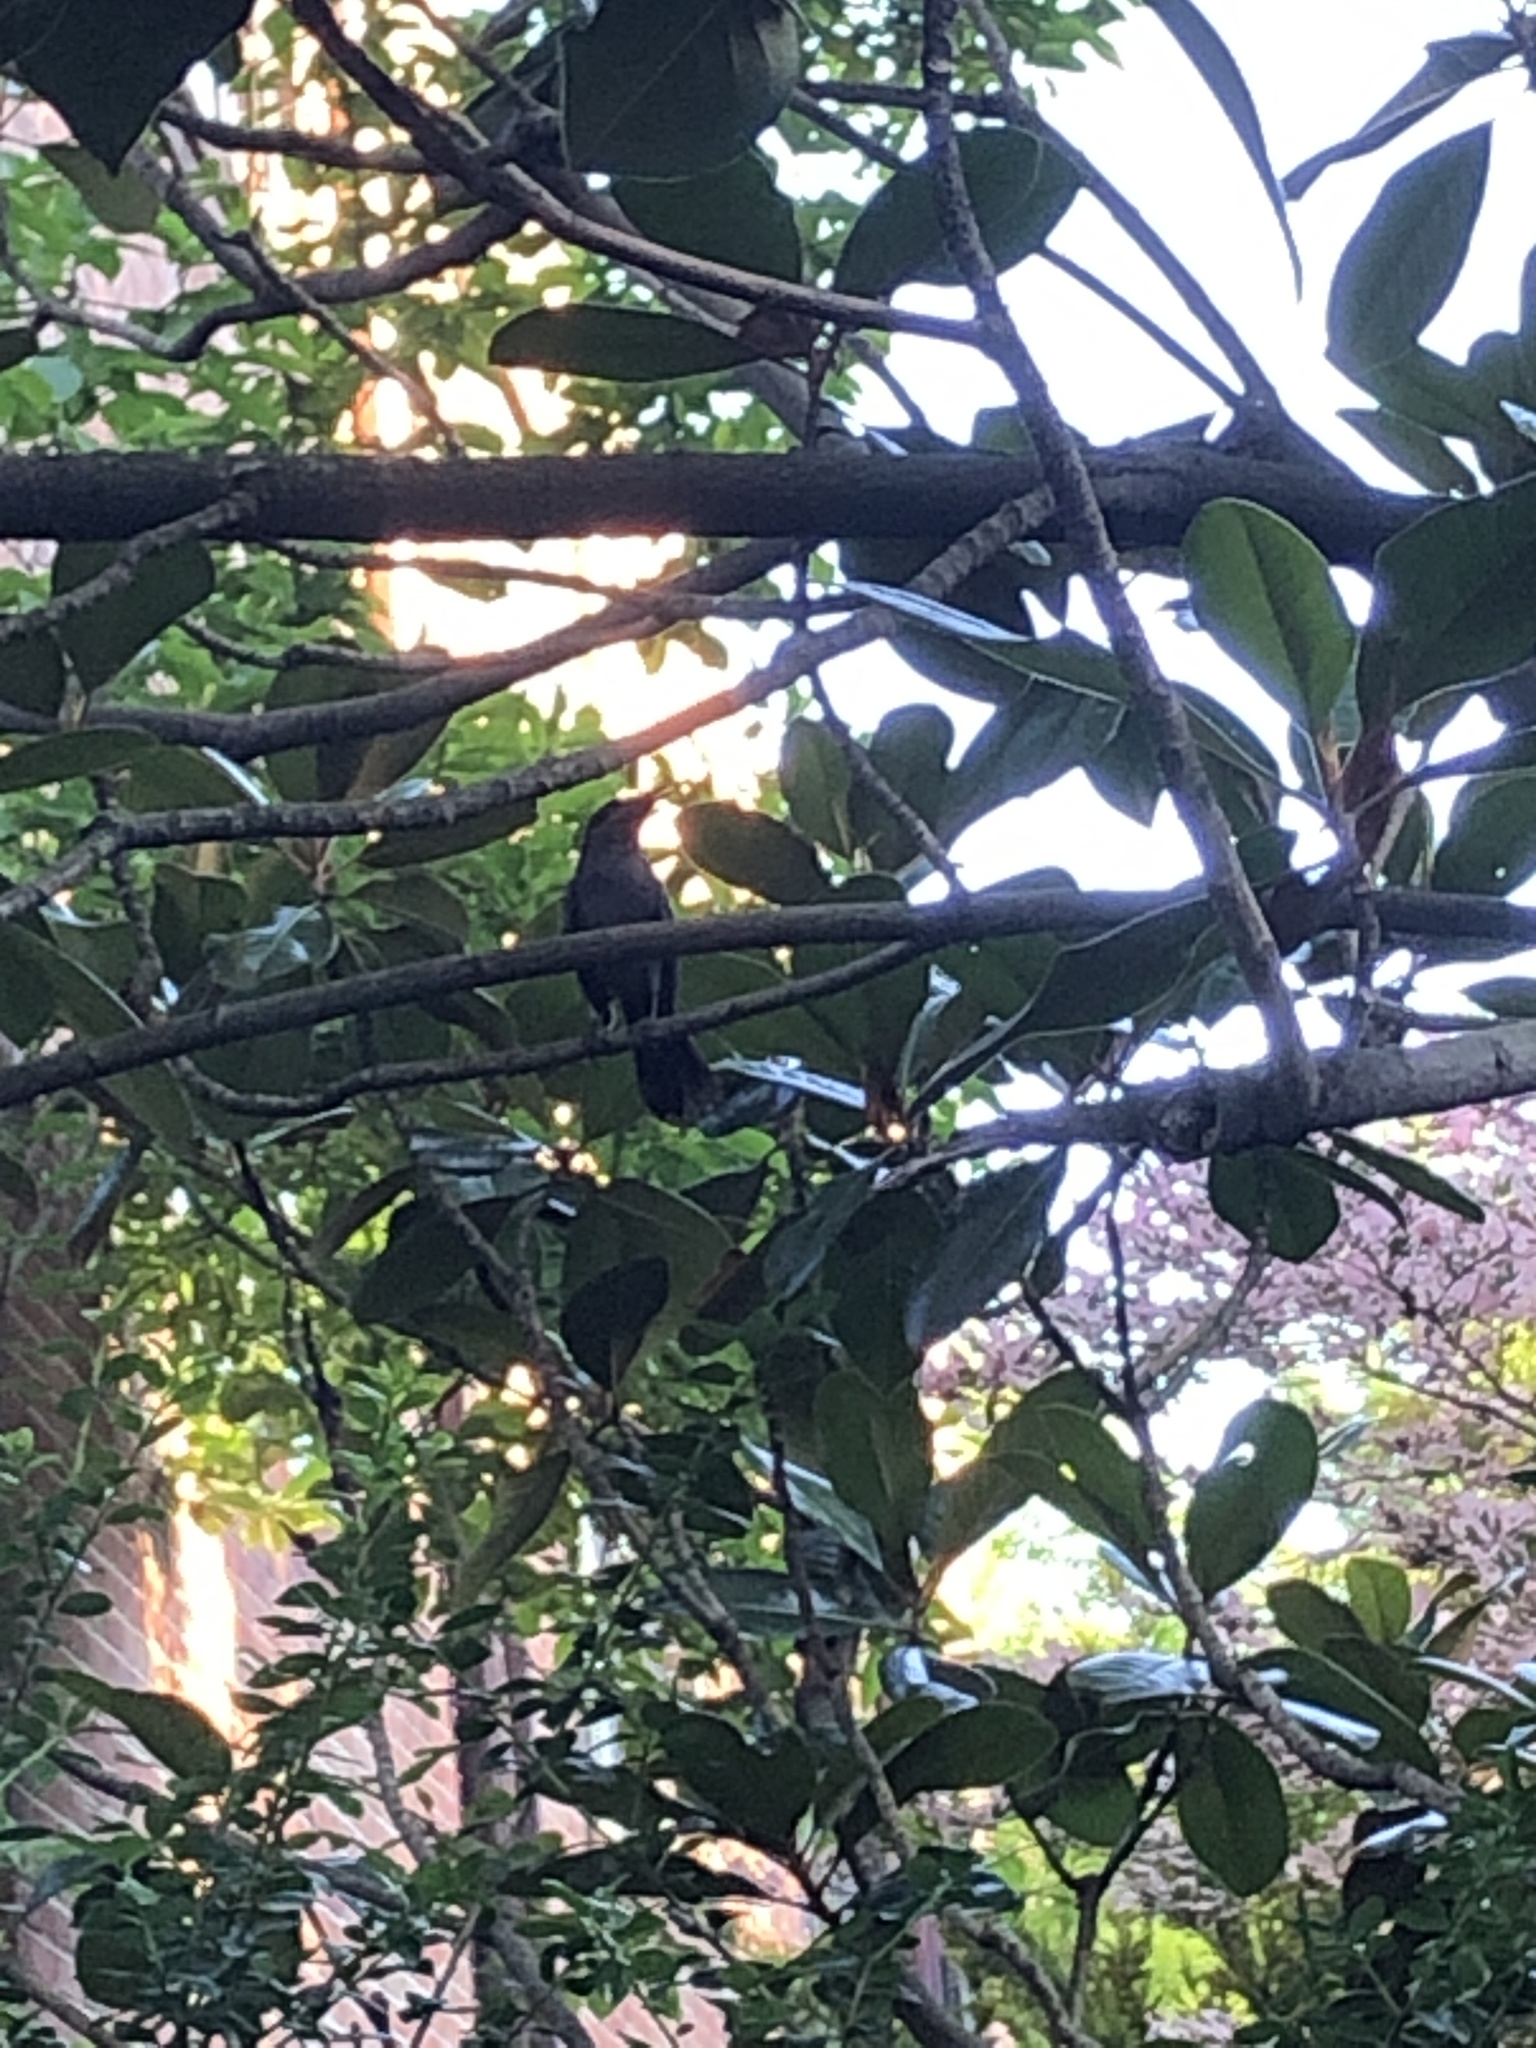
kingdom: Animalia
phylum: Chordata
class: Aves
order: Passeriformes
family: Mimidae
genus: Dumetella
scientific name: Dumetella carolinensis
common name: Gray catbird
